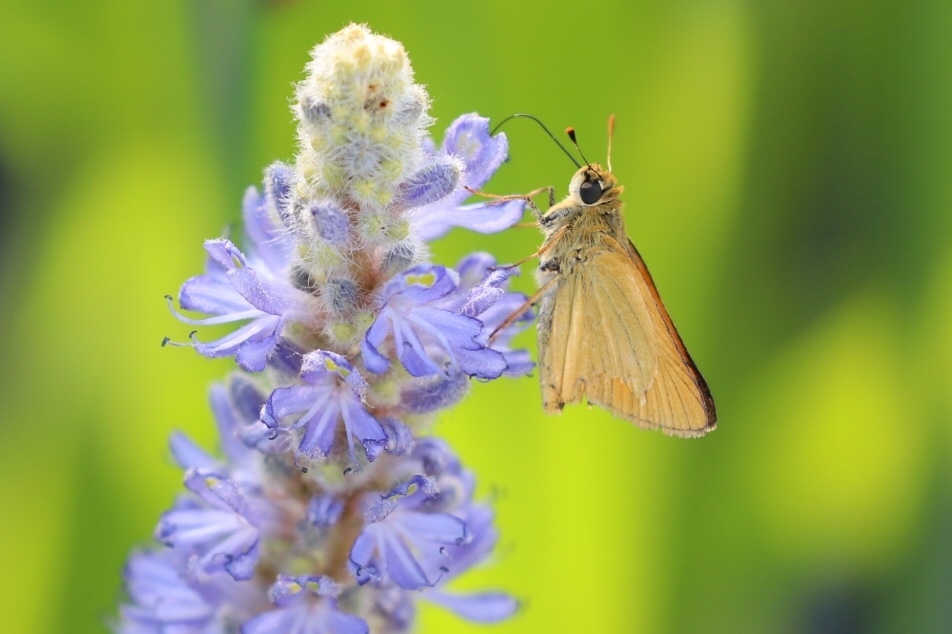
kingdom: Animalia
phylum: Arthropoda
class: Insecta
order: Lepidoptera
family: Hesperiidae
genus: Atrytone
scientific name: Atrytone delaware
